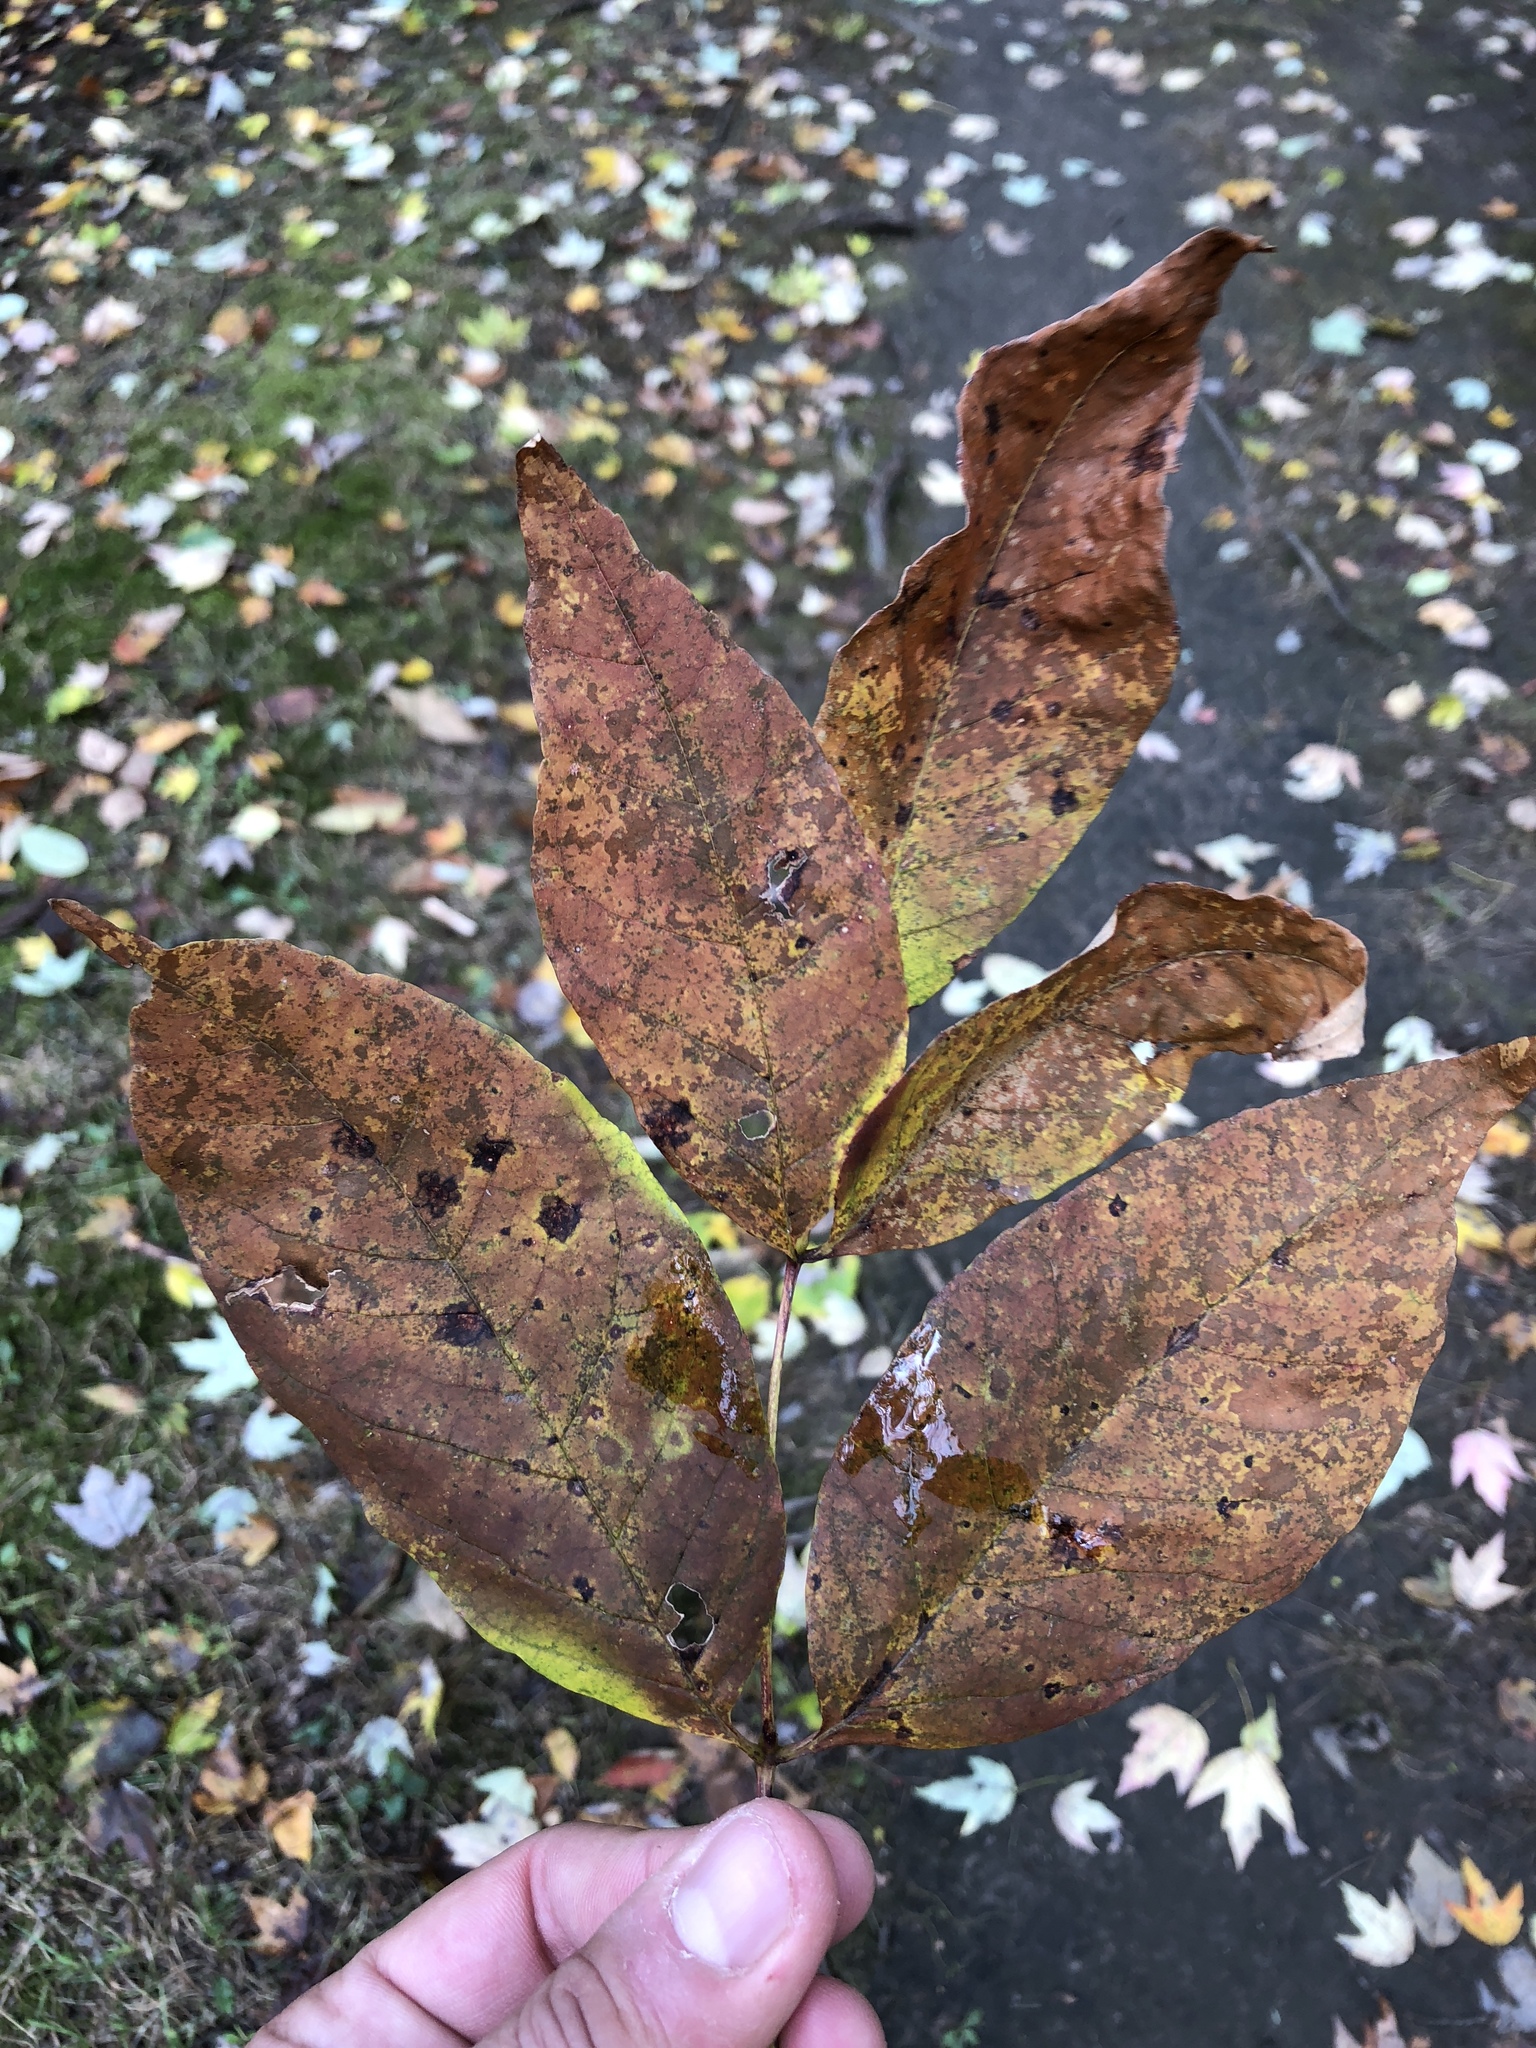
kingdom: Plantae
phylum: Tracheophyta
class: Magnoliopsida
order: Lamiales
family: Oleaceae
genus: Fraxinus
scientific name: Fraxinus americana
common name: White ash
